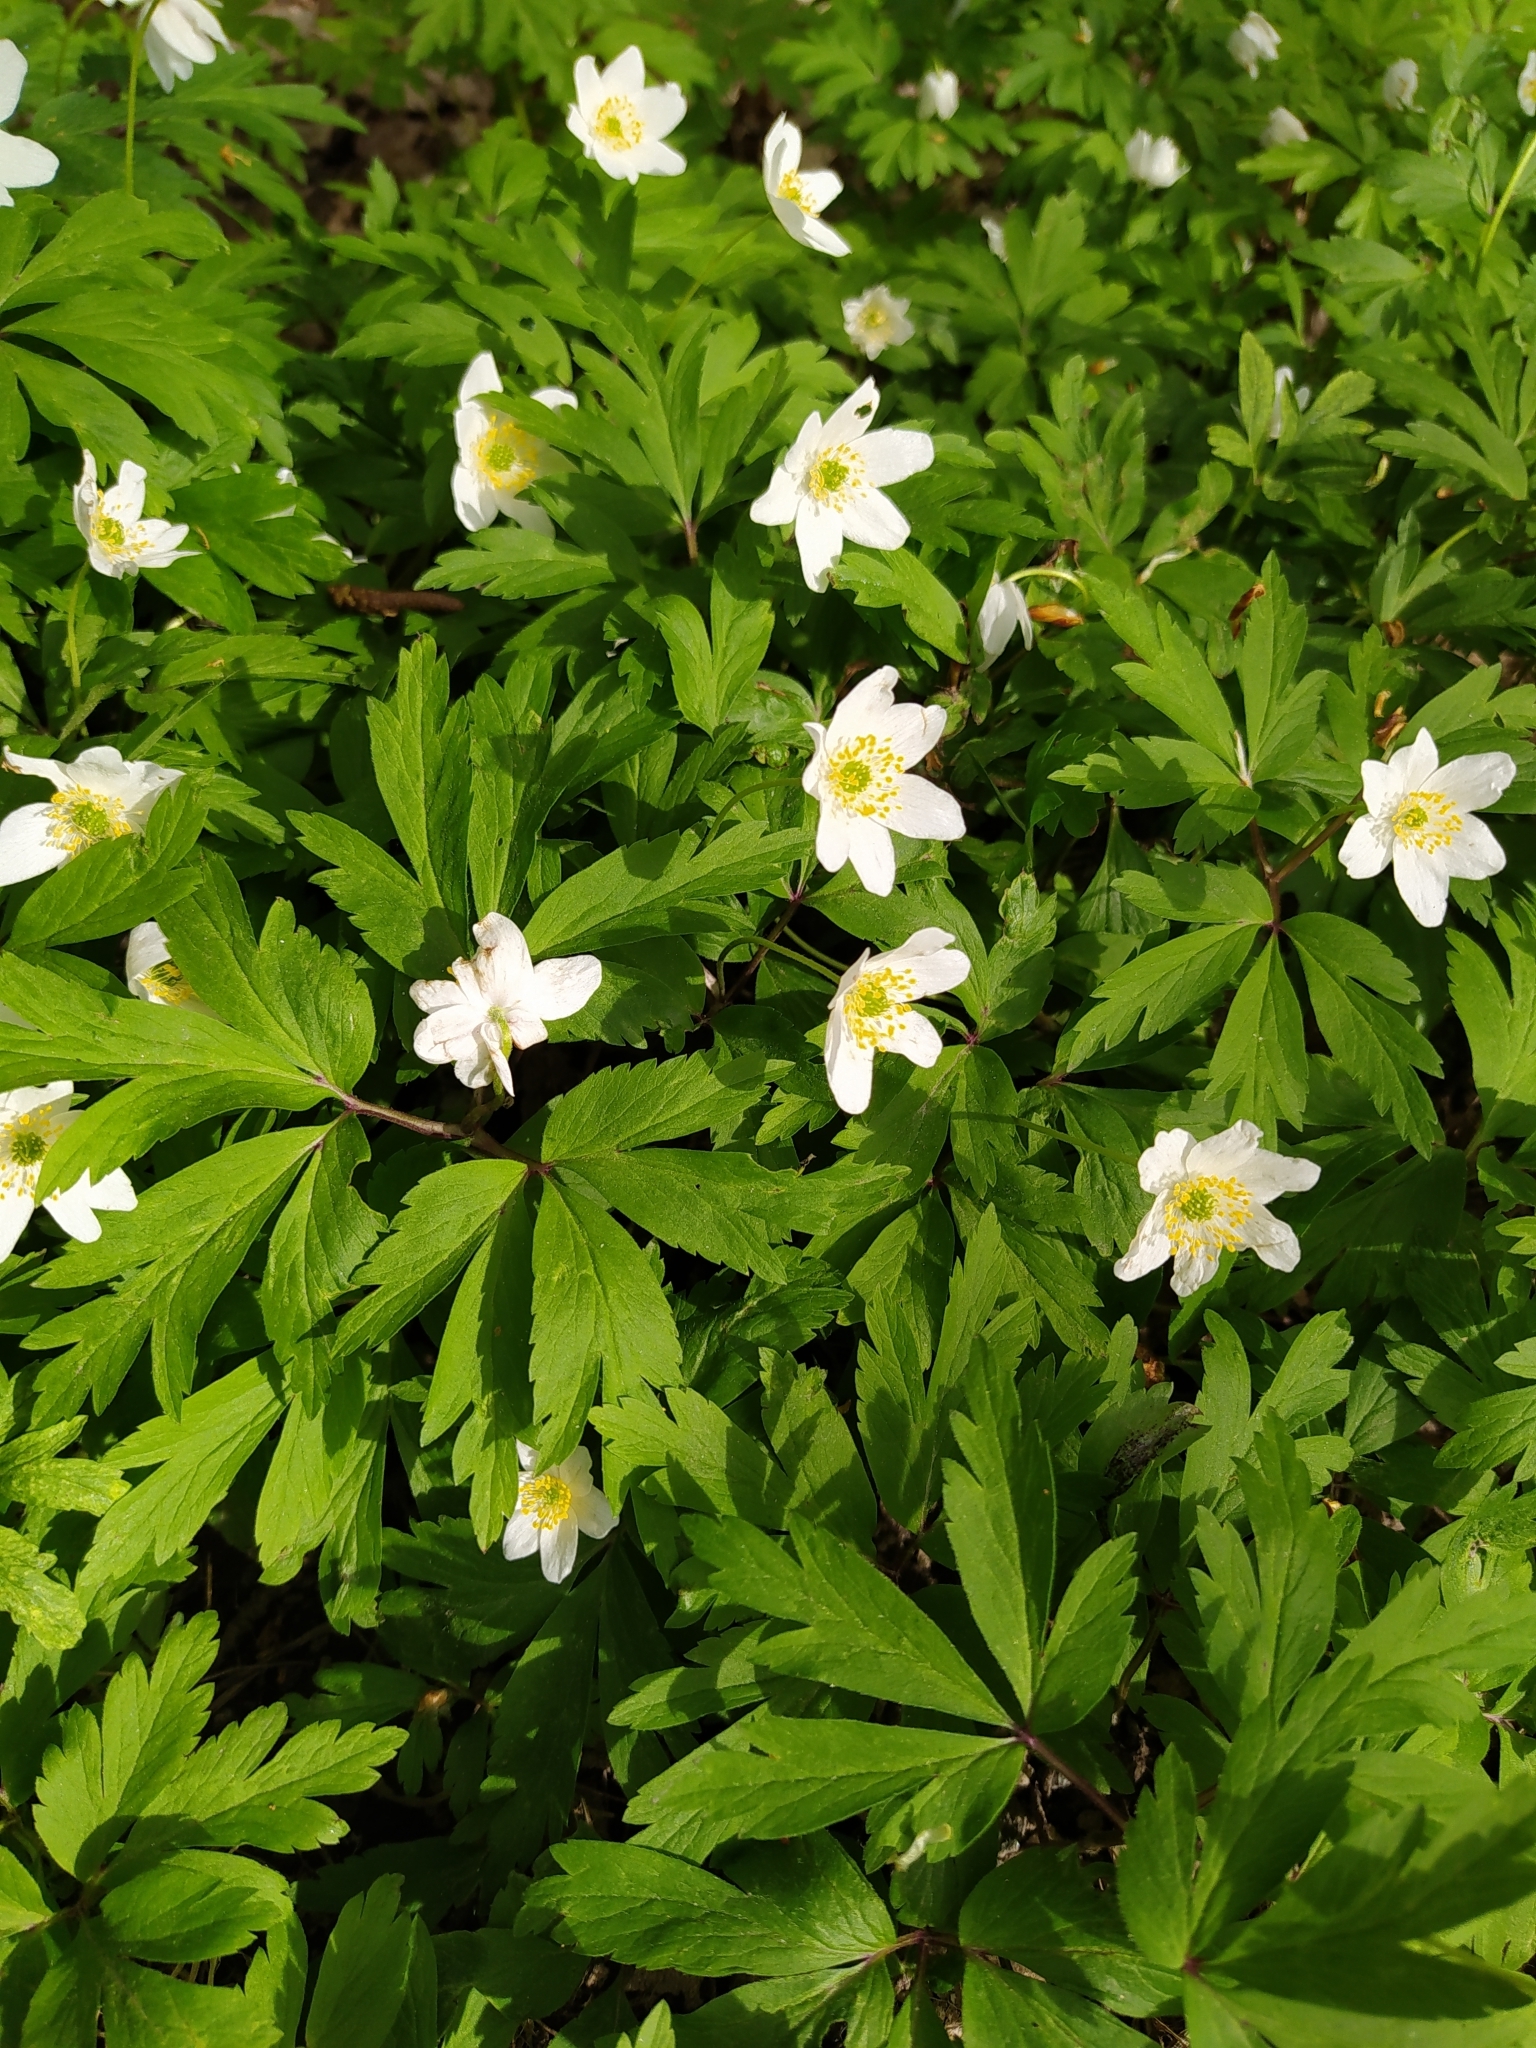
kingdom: Plantae
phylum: Tracheophyta
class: Magnoliopsida
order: Ranunculales
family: Ranunculaceae
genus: Anemone
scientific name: Anemone nemorosa
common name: Wood anemone
